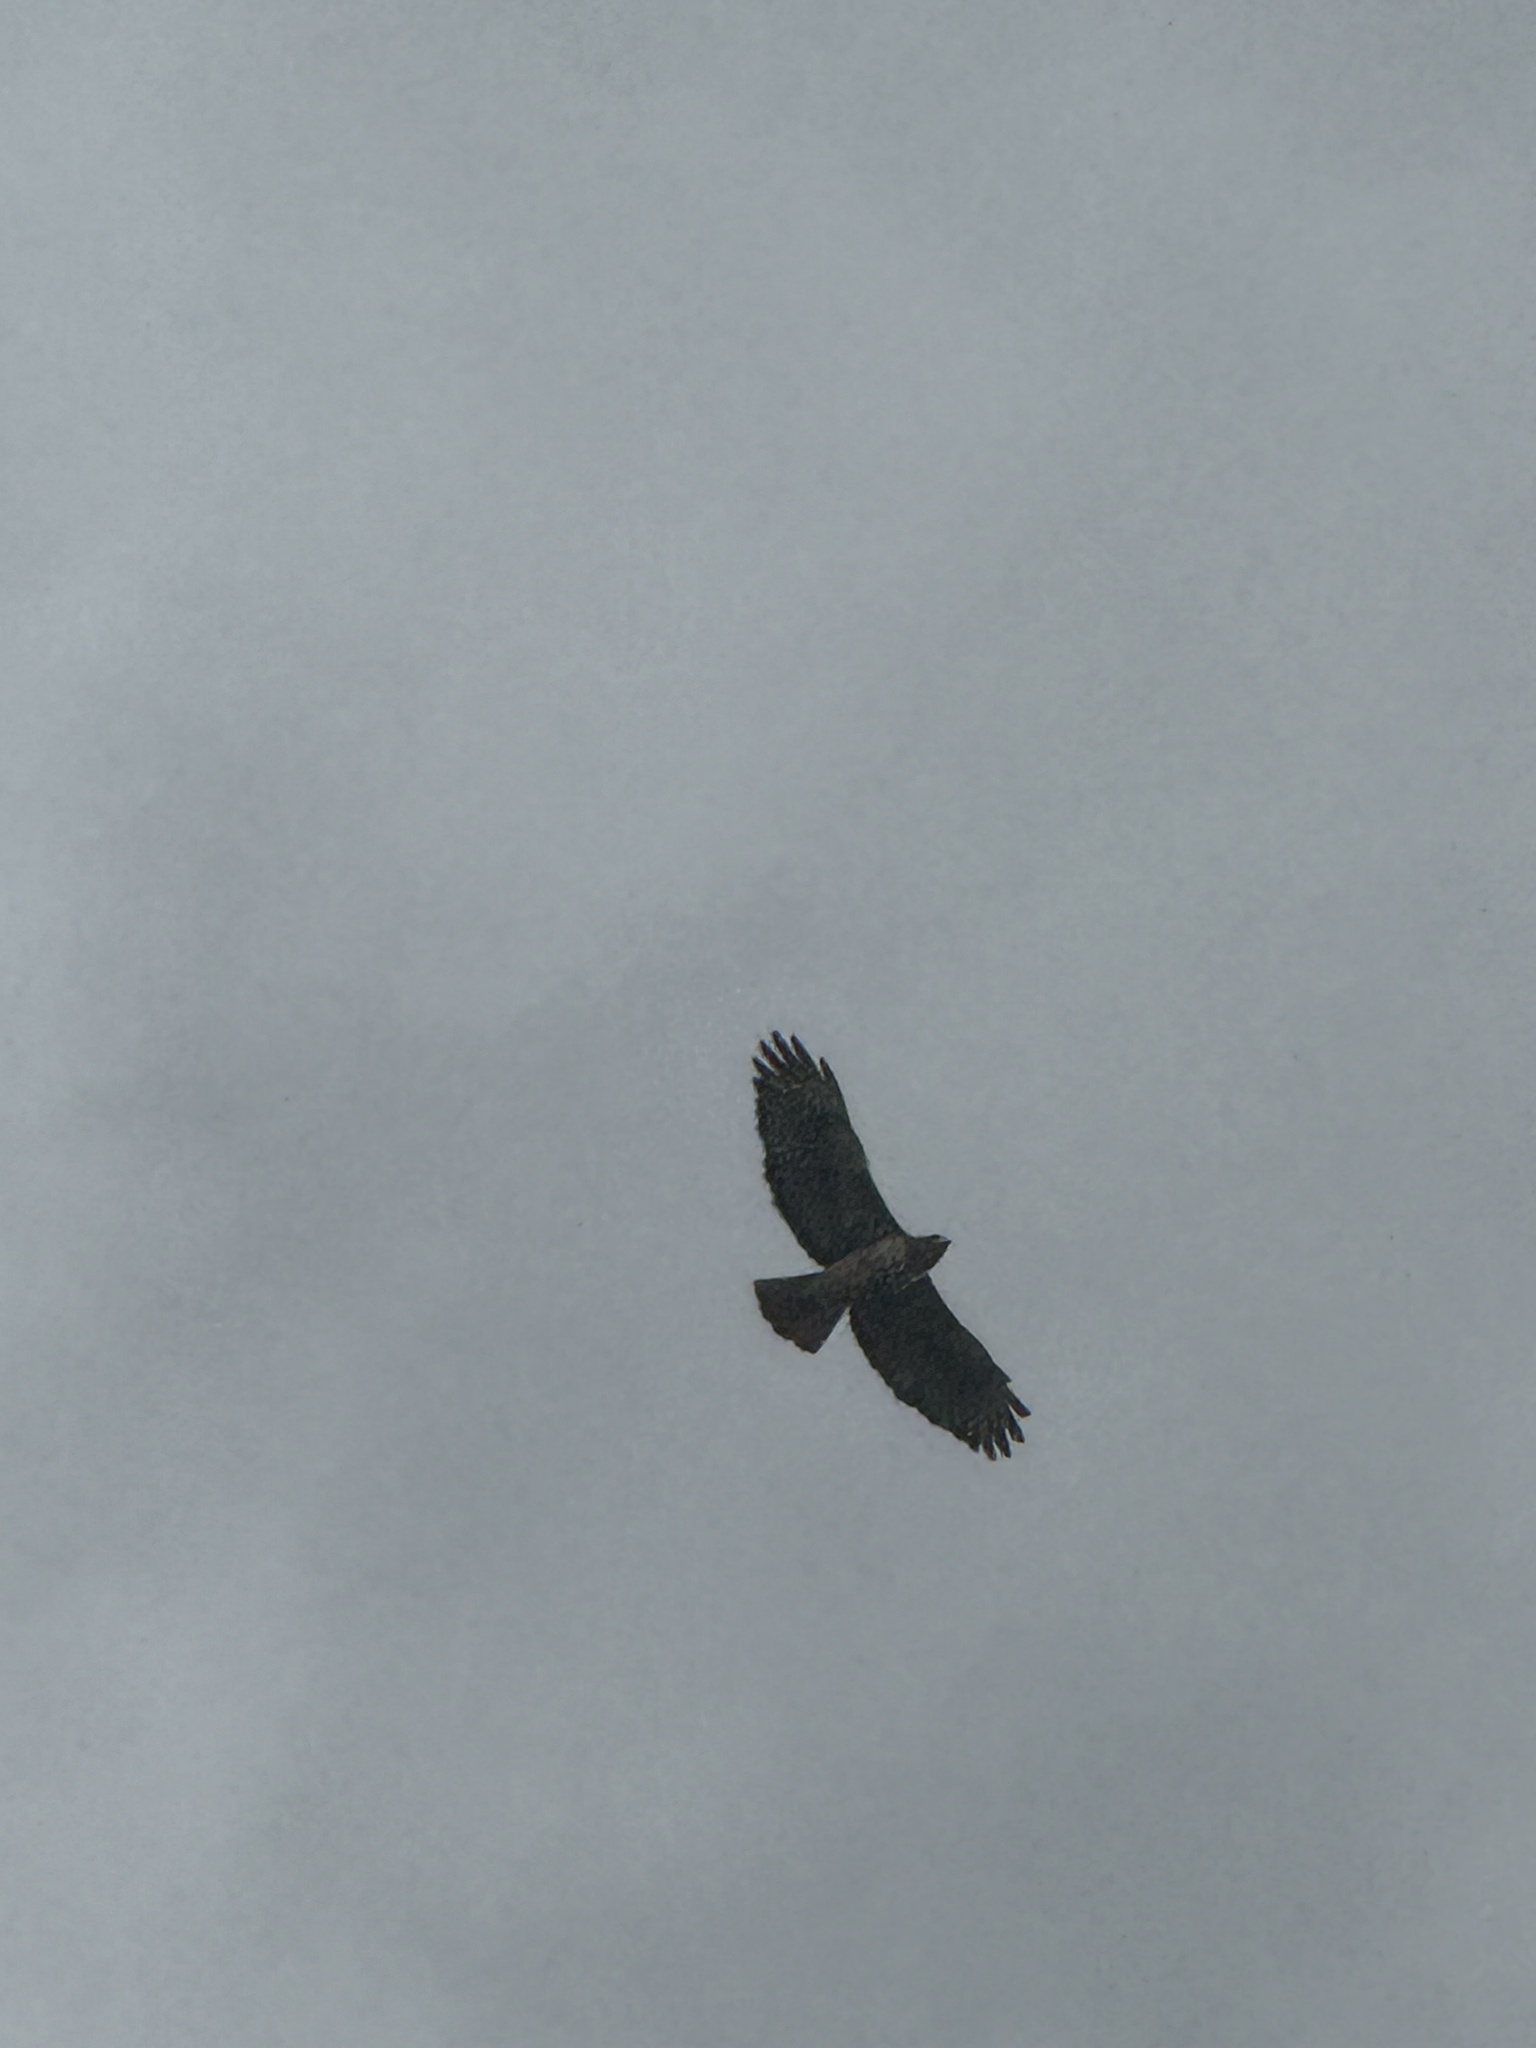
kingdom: Animalia
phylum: Chordata
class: Aves
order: Accipitriformes
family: Accipitridae
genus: Buteo
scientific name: Buteo jamaicensis
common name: Red-tailed hawk
